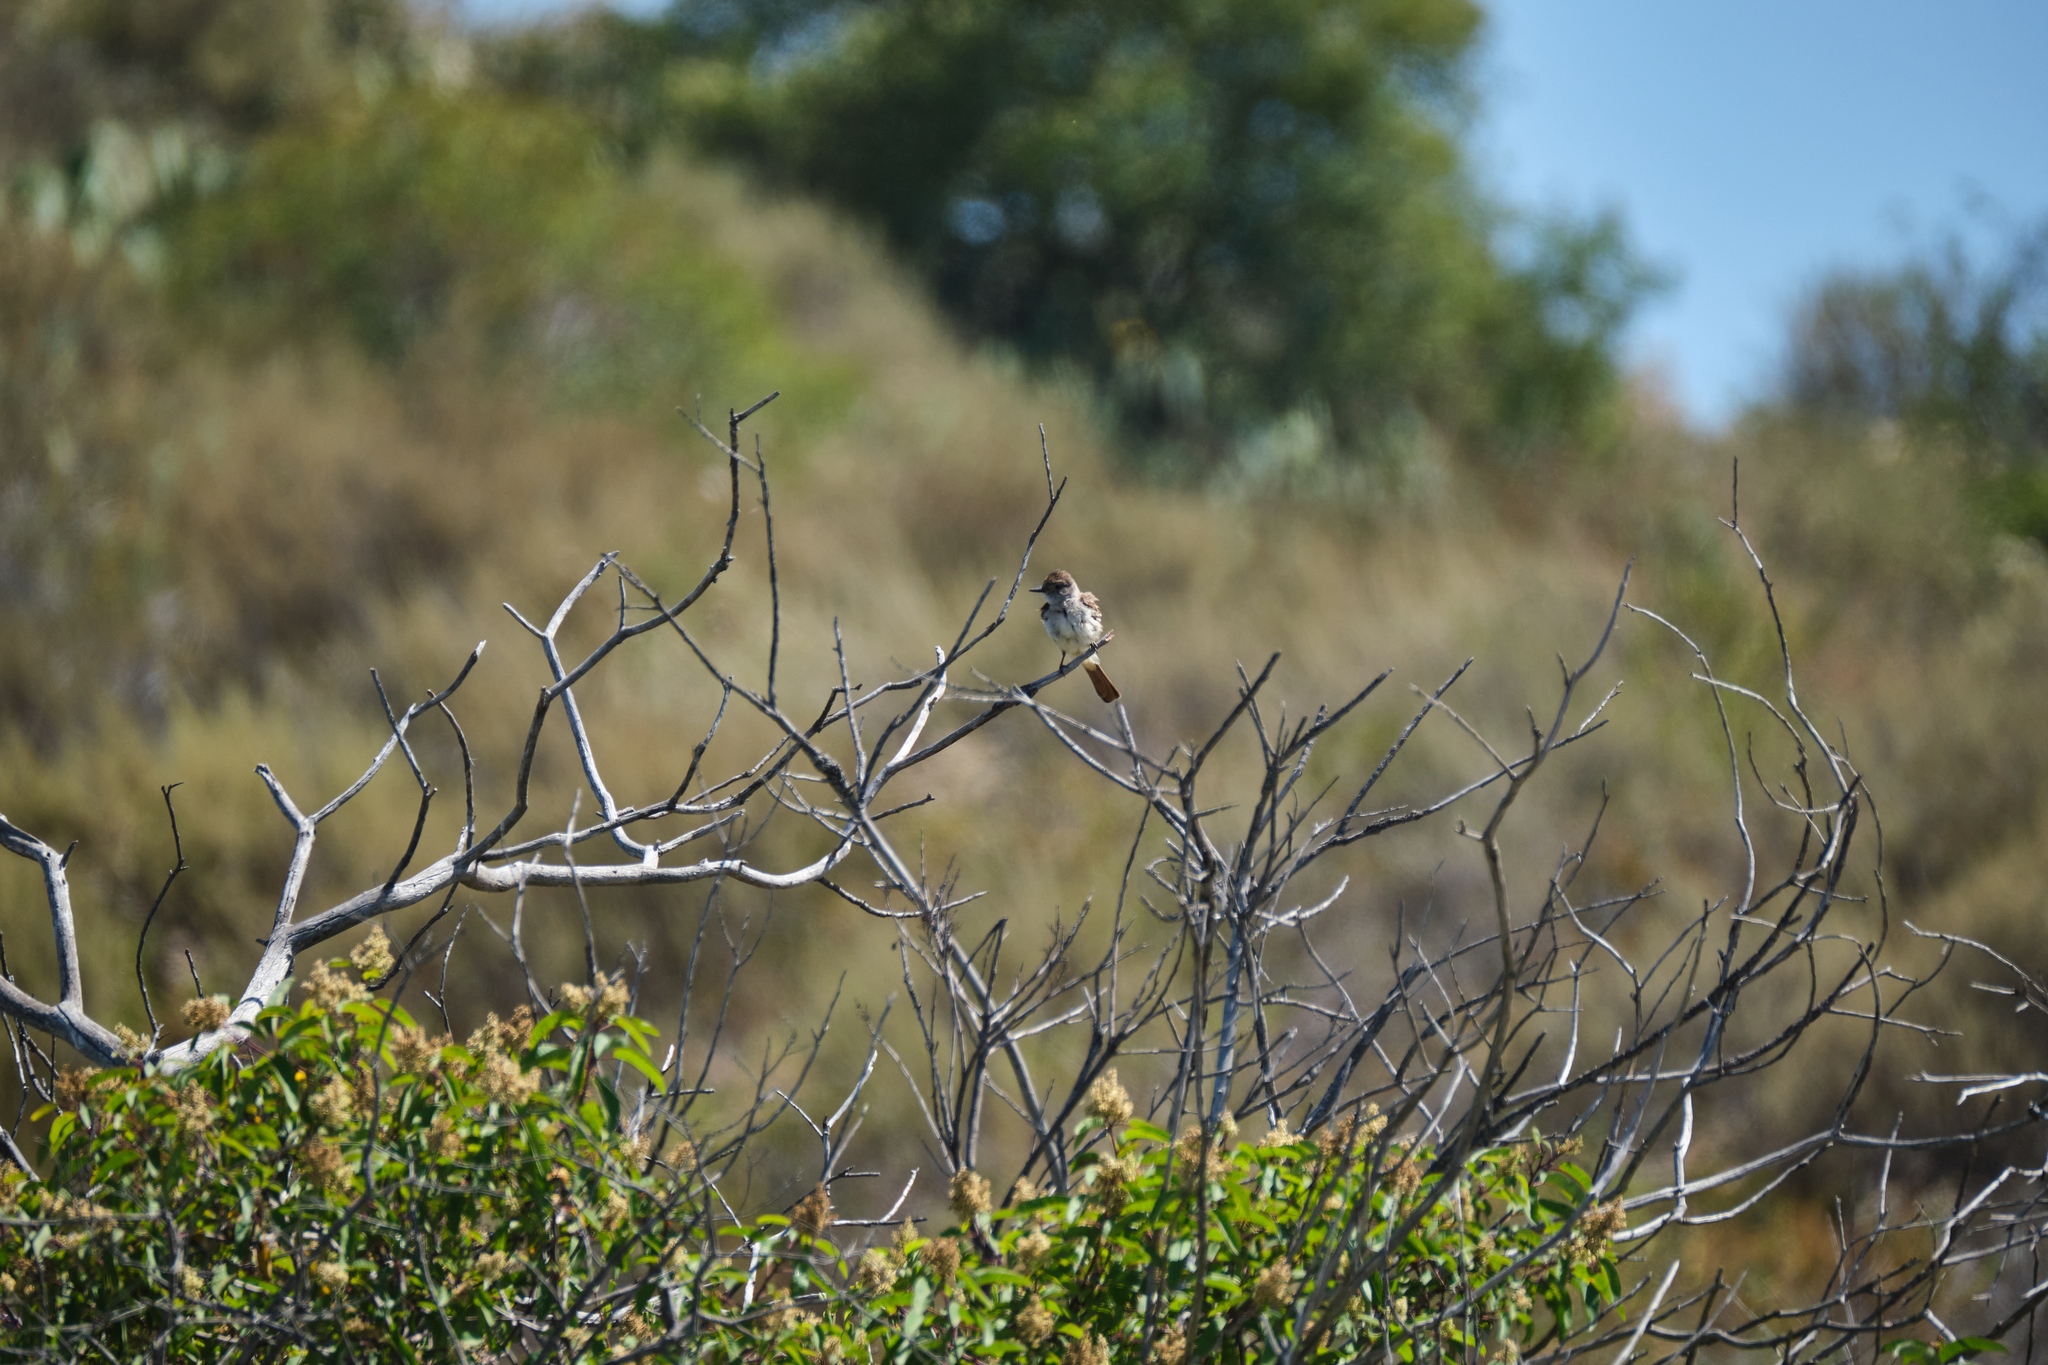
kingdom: Animalia
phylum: Chordata
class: Aves
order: Passeriformes
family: Tyrannidae
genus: Myiarchus
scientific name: Myiarchus cinerascens
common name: Ash-throated flycatcher
